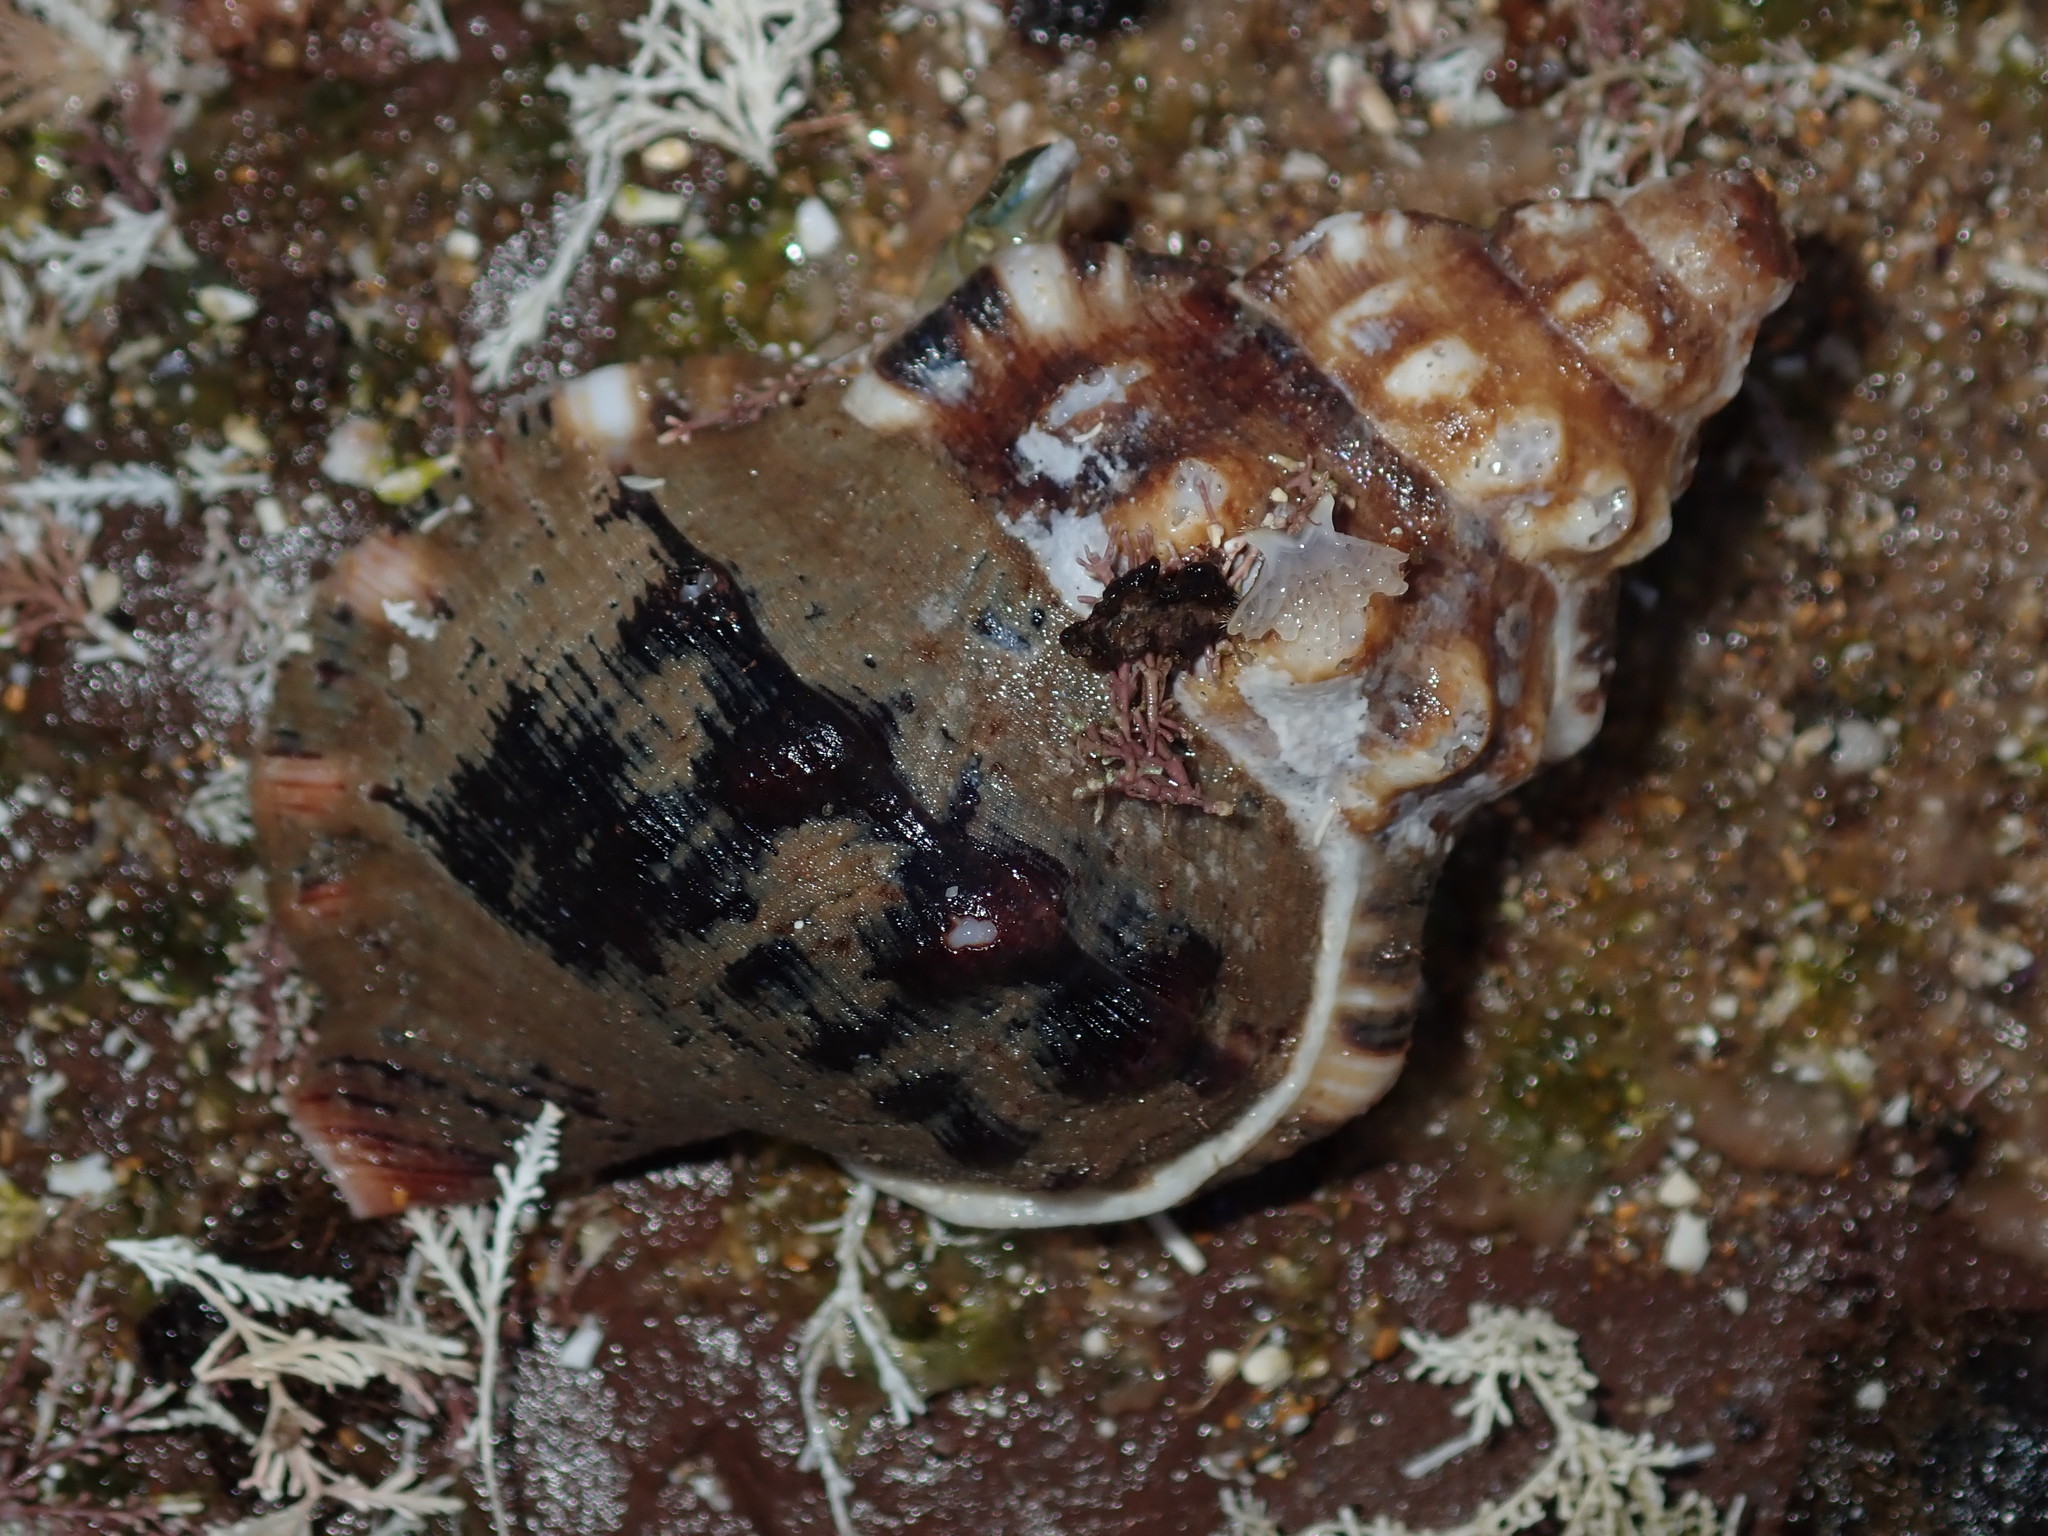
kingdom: Animalia
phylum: Mollusca
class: Gastropoda
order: Littorinimorpha
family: Ranellidae
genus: Ranella
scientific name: Ranella australasia
